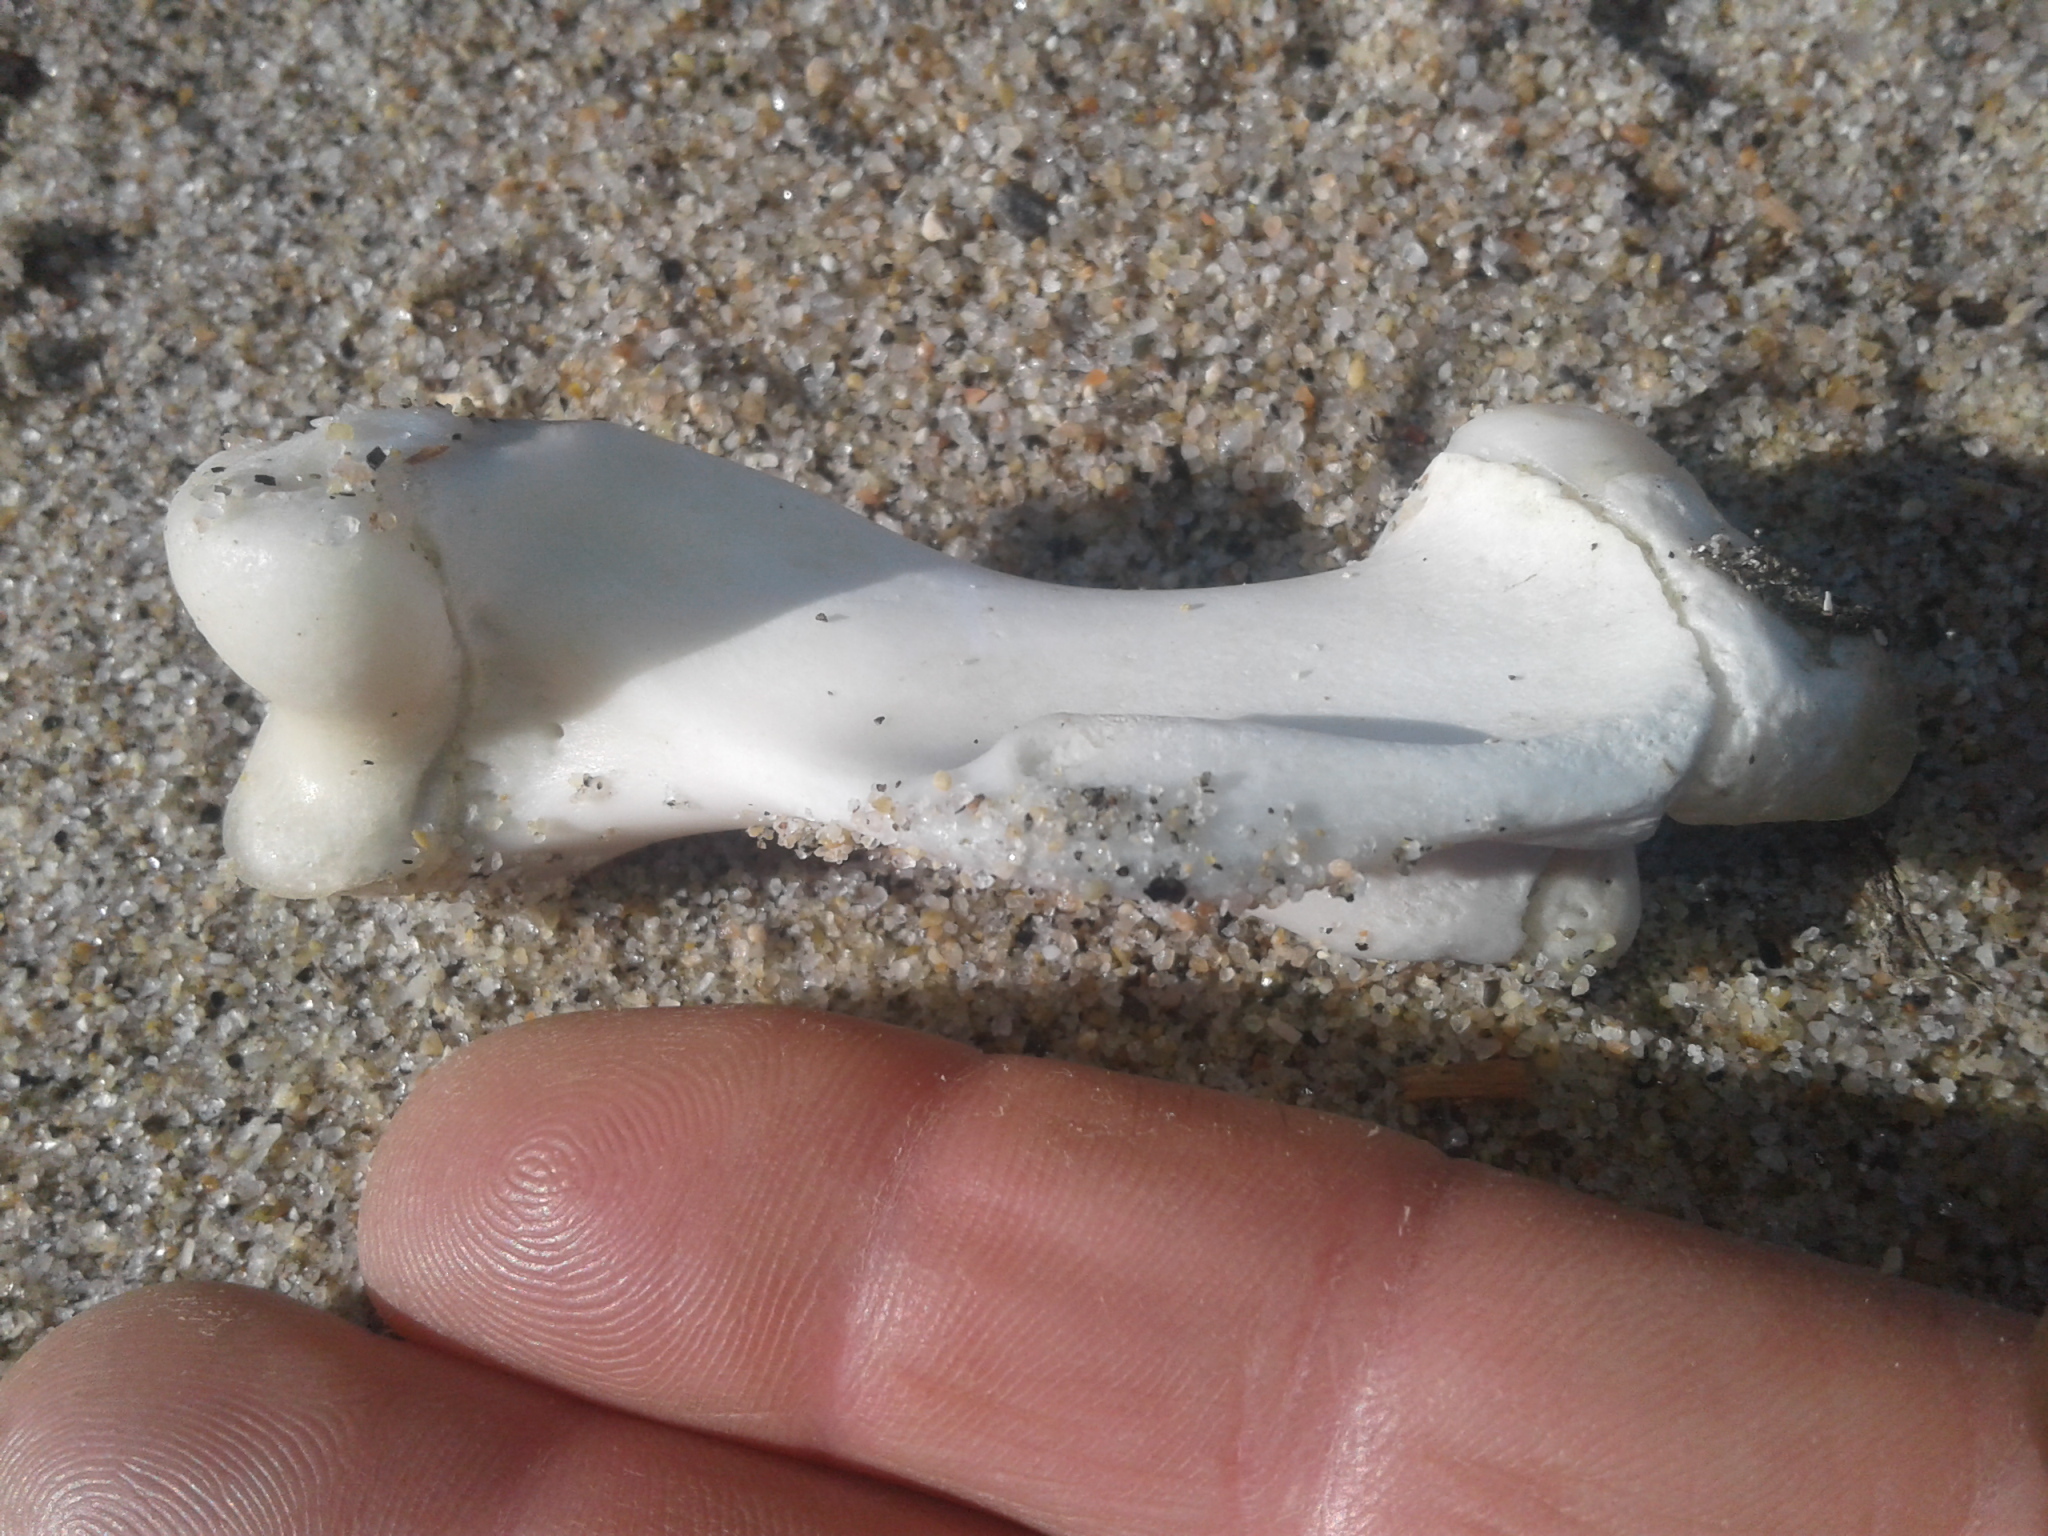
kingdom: Animalia
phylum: Chordata
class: Mammalia
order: Carnivora
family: Otariidae
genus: Arctocephalus
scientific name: Arctocephalus forsteri
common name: New zealand fur seal
